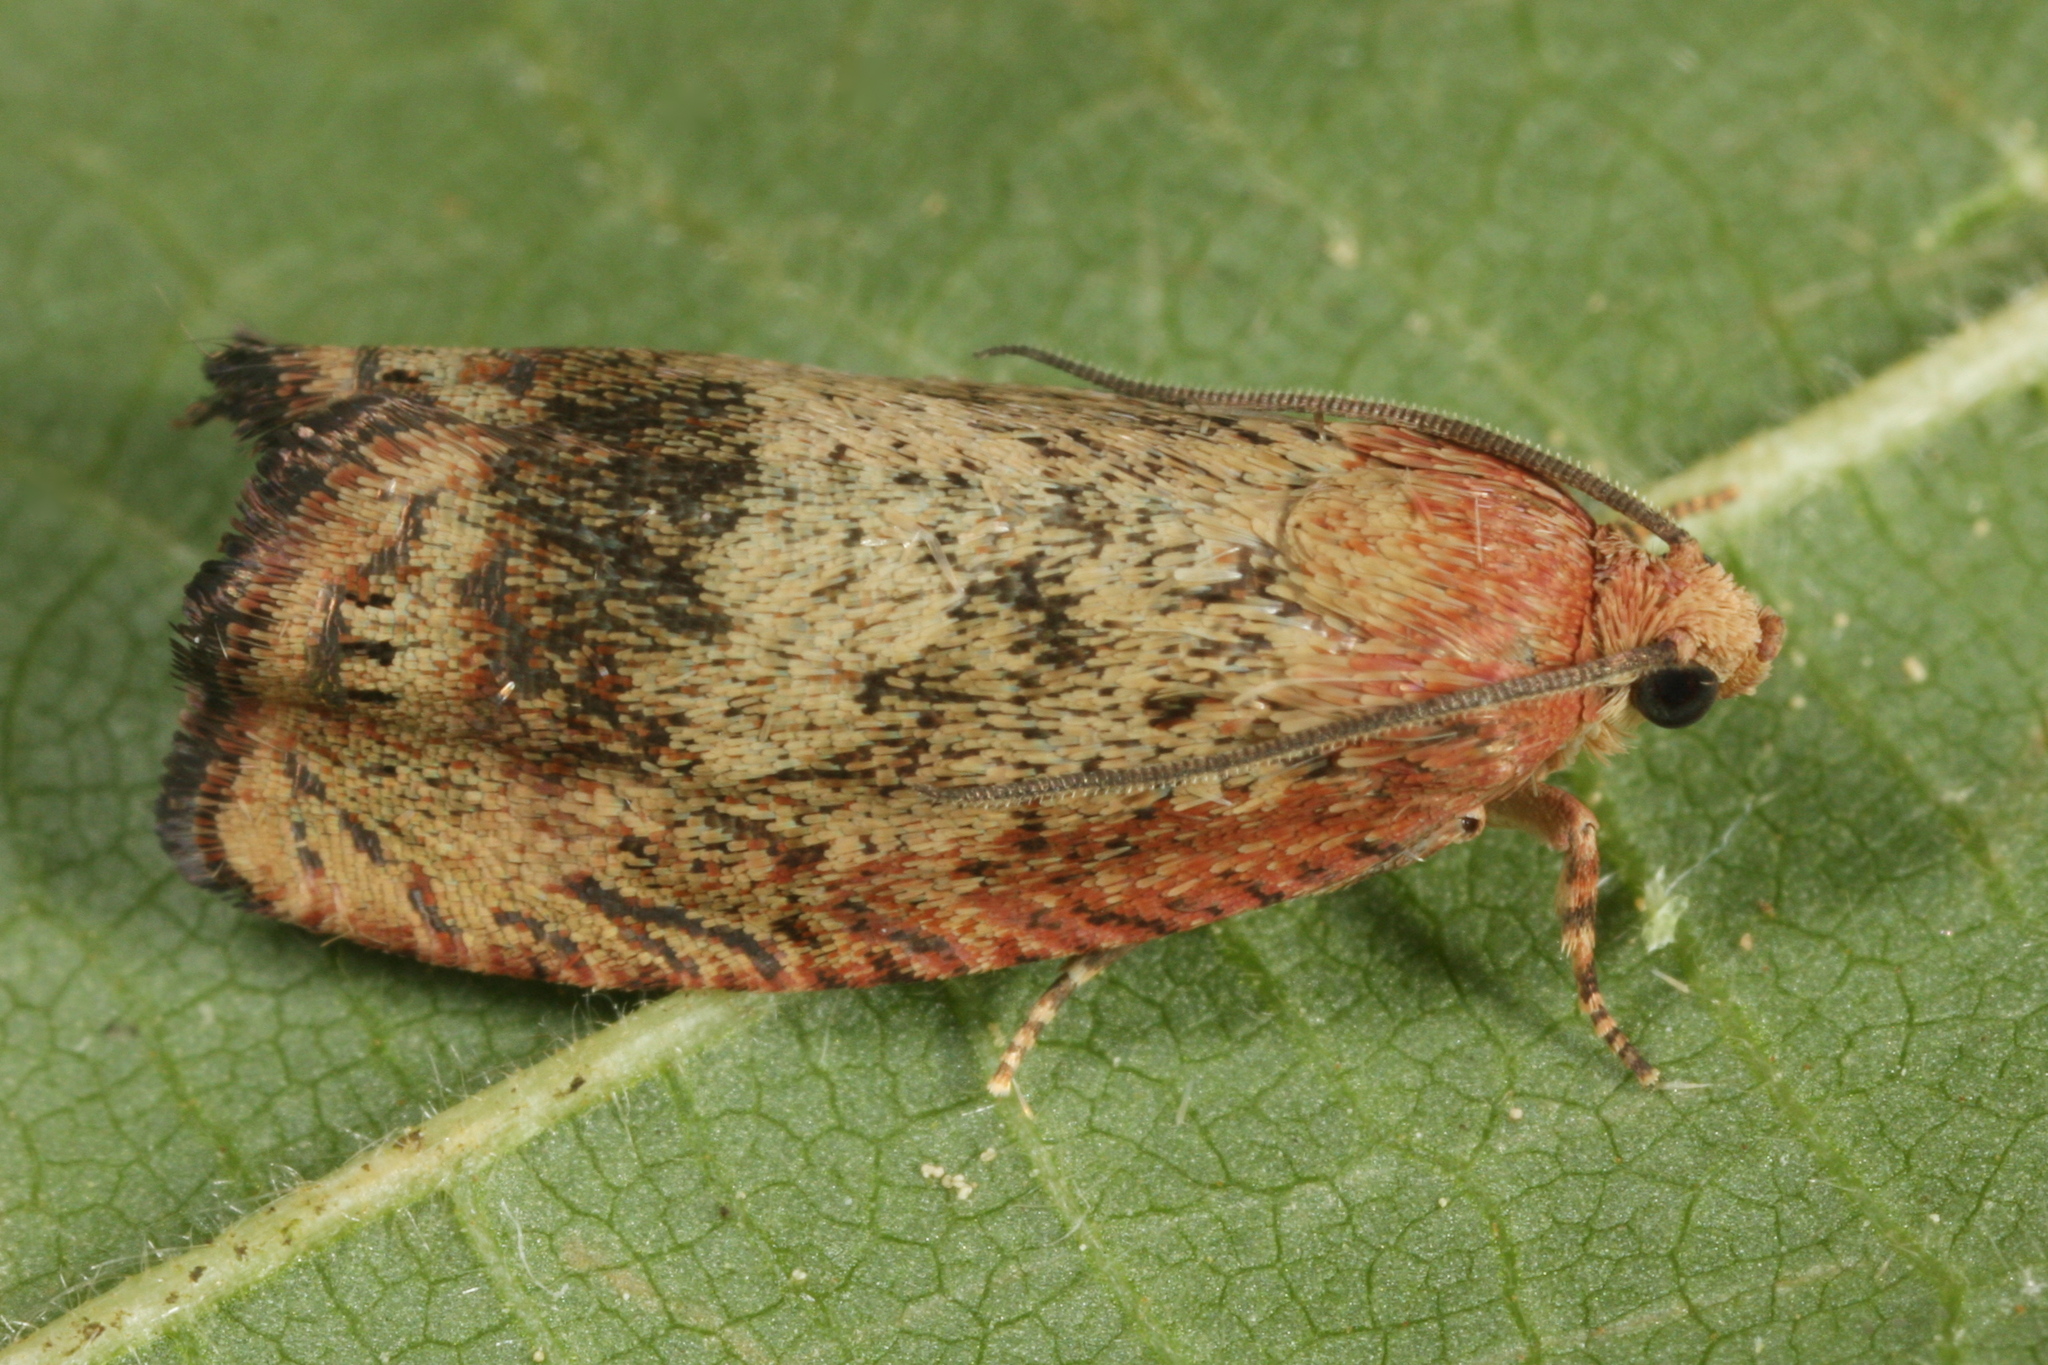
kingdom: Animalia
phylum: Arthropoda
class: Insecta
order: Lepidoptera
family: Tortricidae
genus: Cydia
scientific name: Cydia amplana
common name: Vagrant piercer
